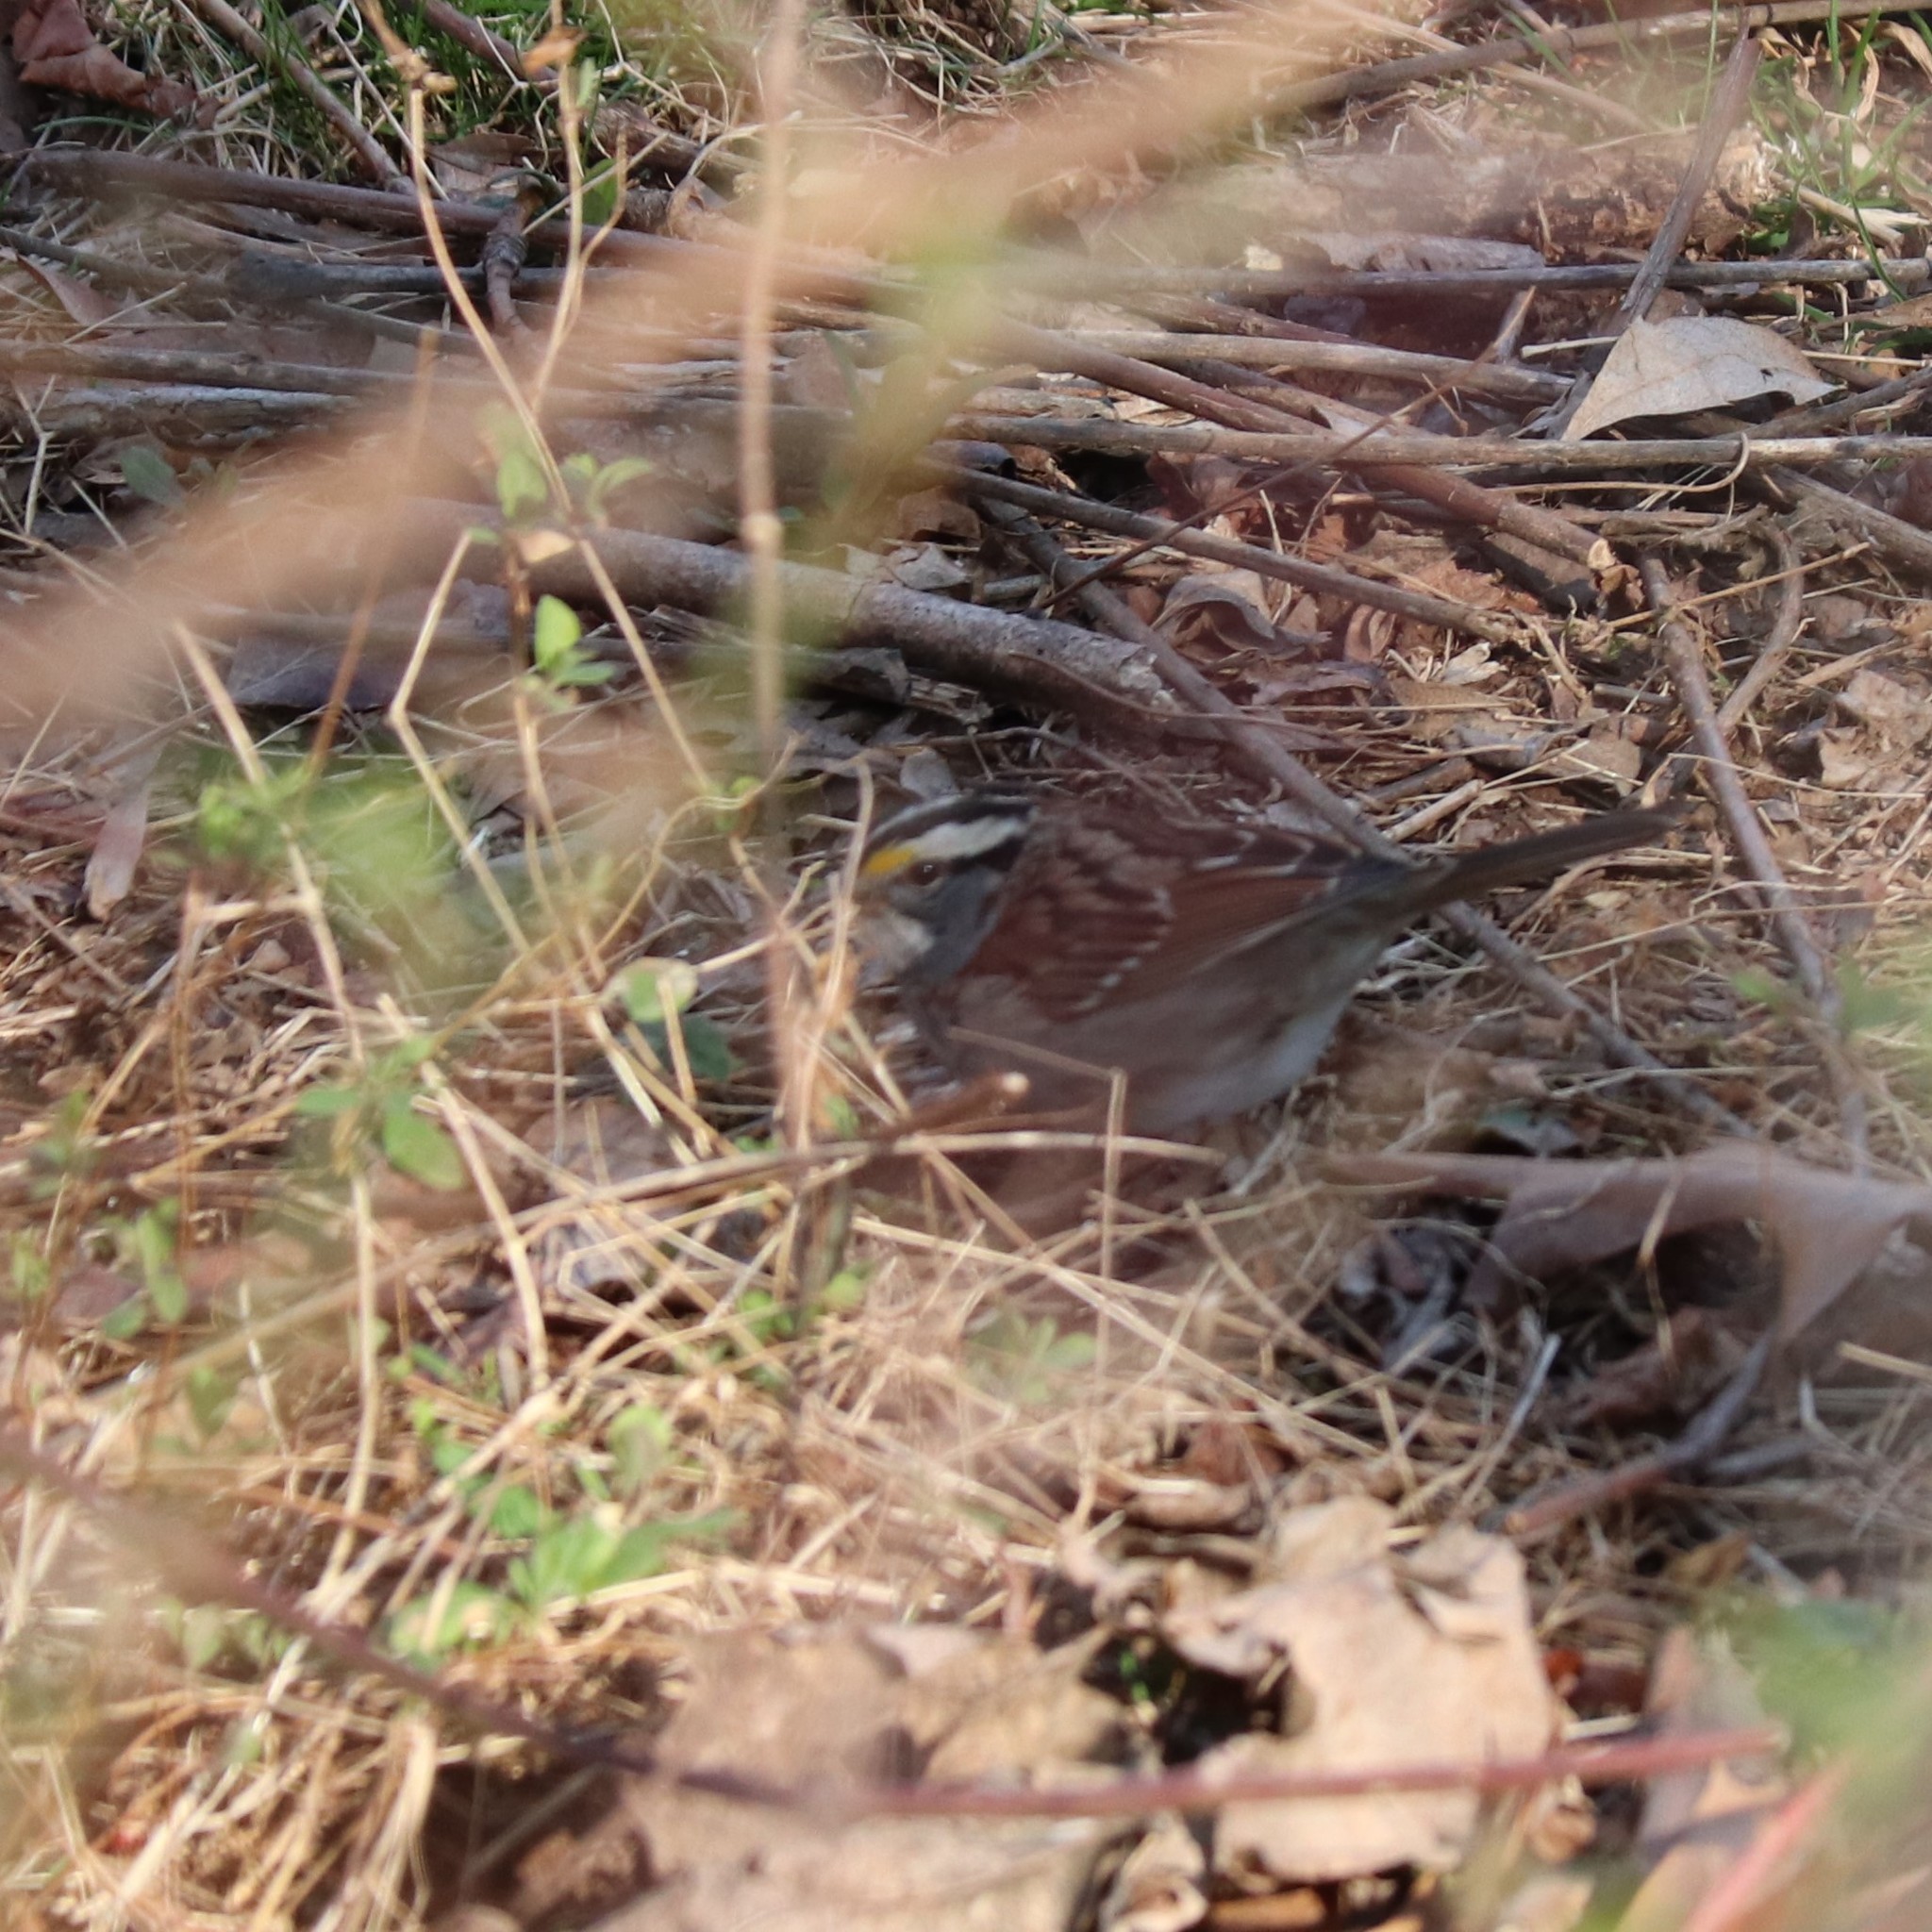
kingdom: Animalia
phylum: Chordata
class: Aves
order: Passeriformes
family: Passerellidae
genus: Zonotrichia
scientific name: Zonotrichia albicollis
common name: White-throated sparrow
